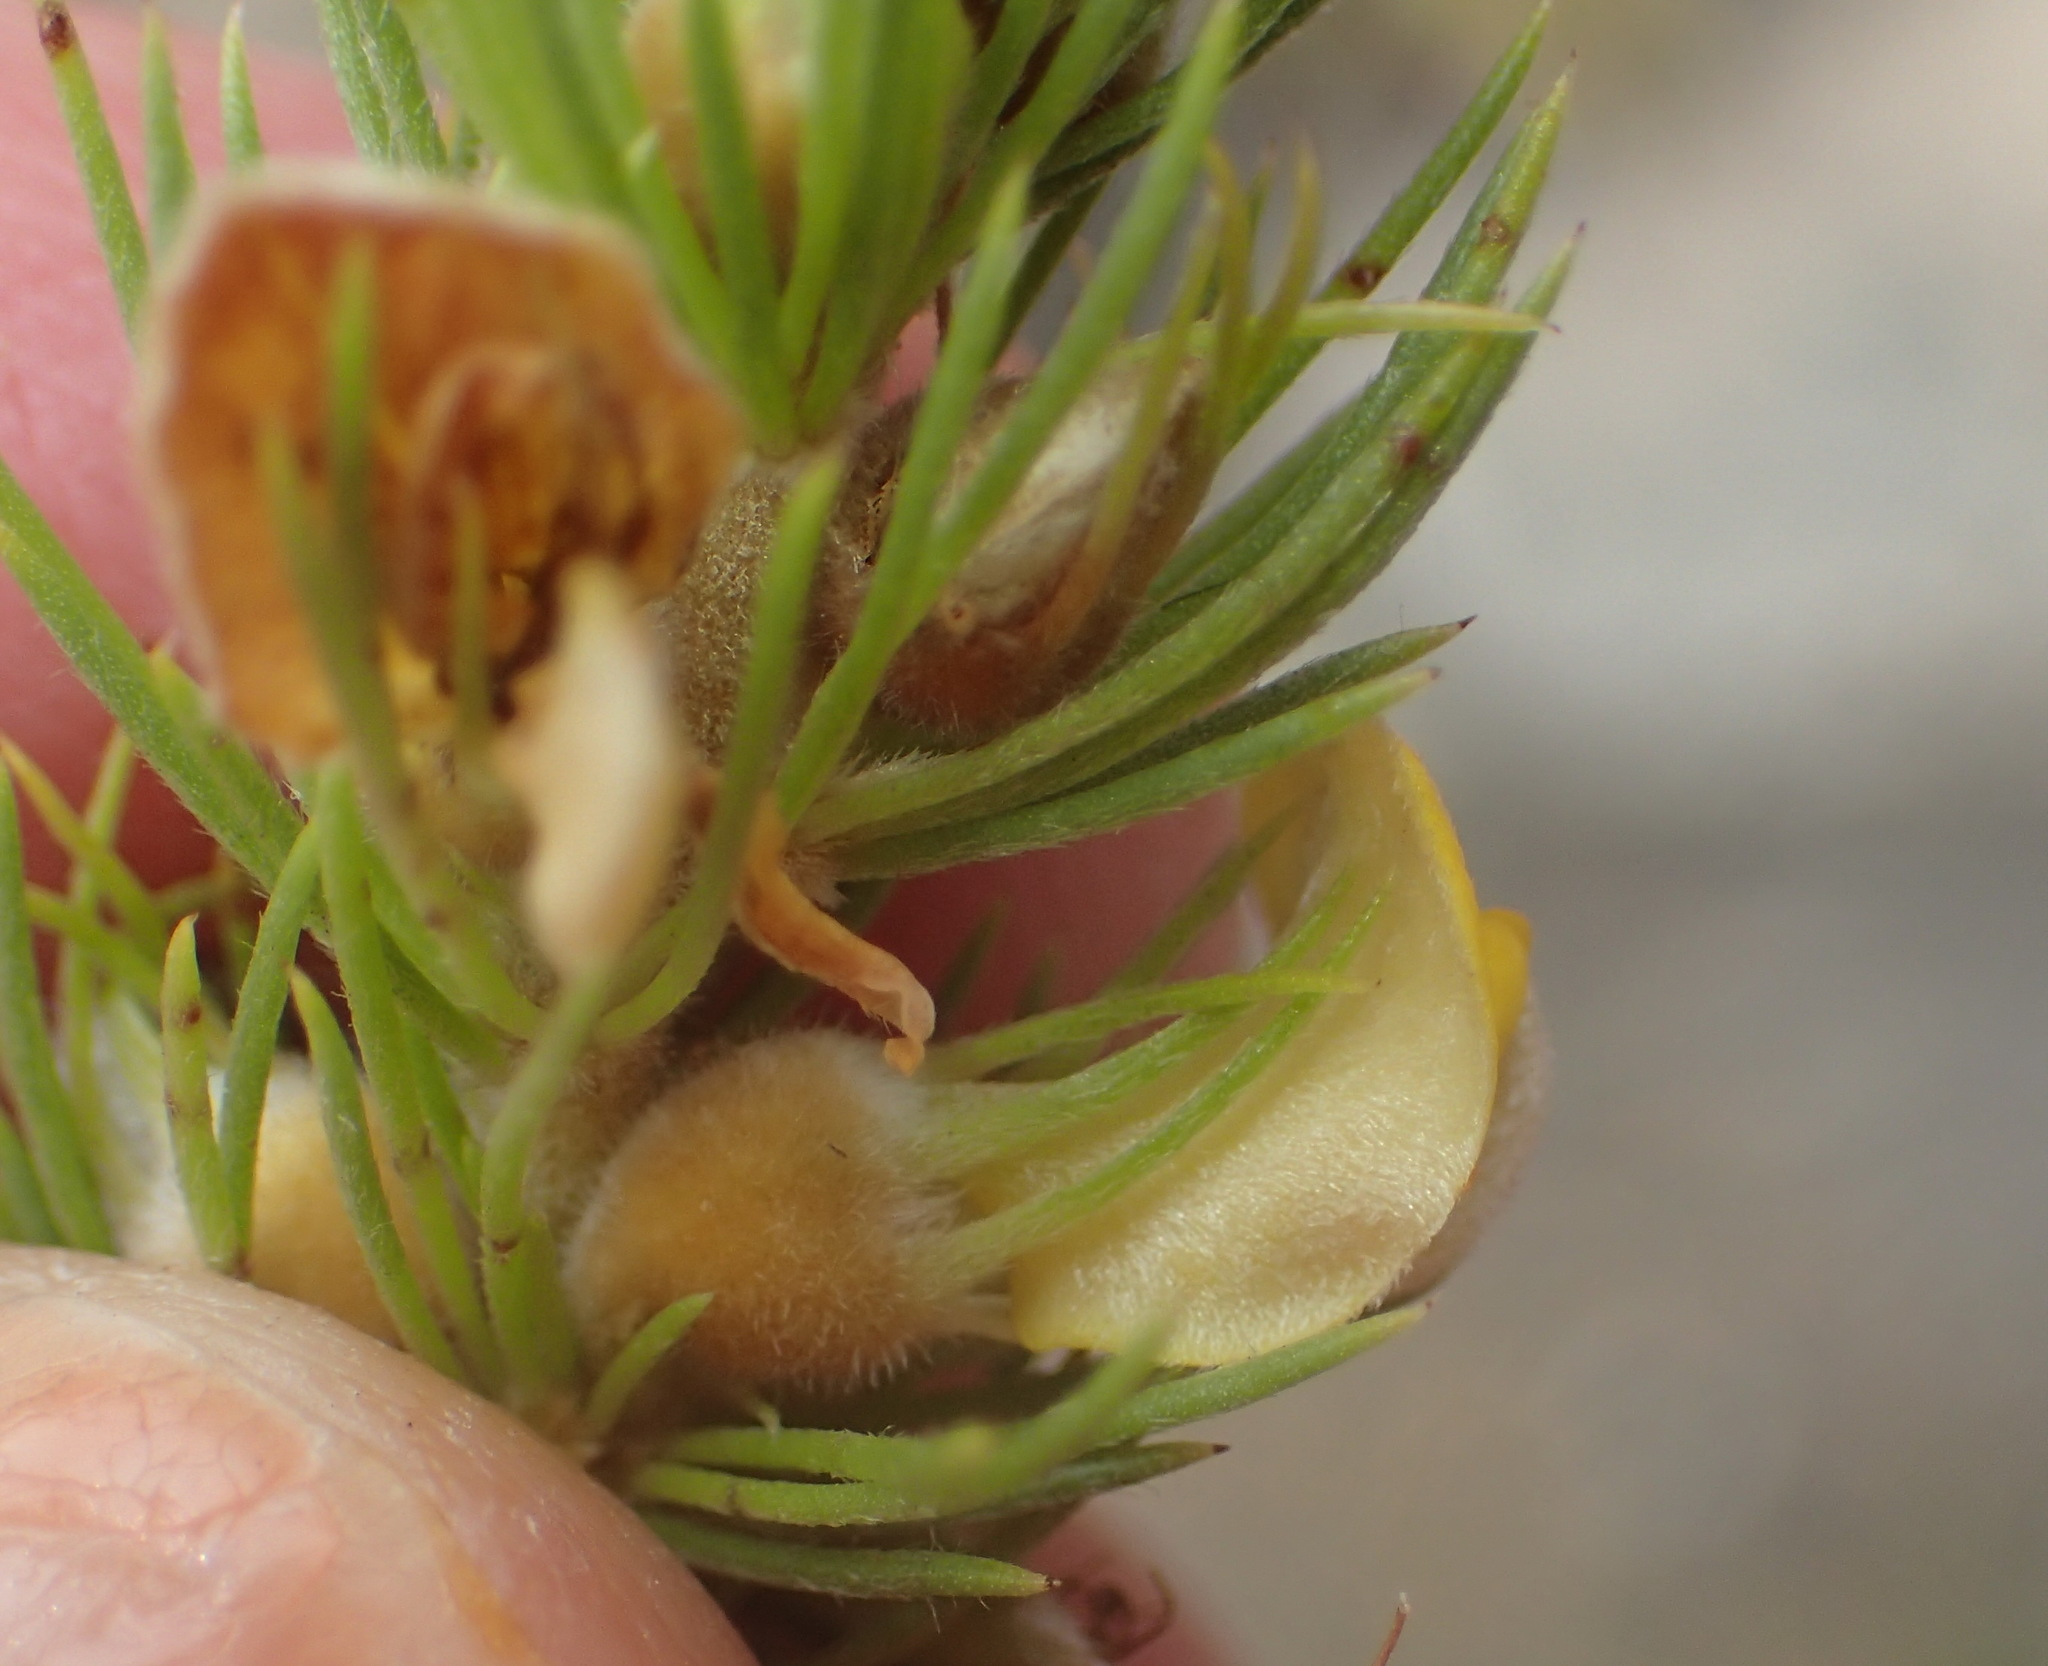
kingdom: Plantae
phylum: Tracheophyta
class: Magnoliopsida
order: Fabales
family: Fabaceae
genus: Aspalathus
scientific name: Aspalathus setacea
